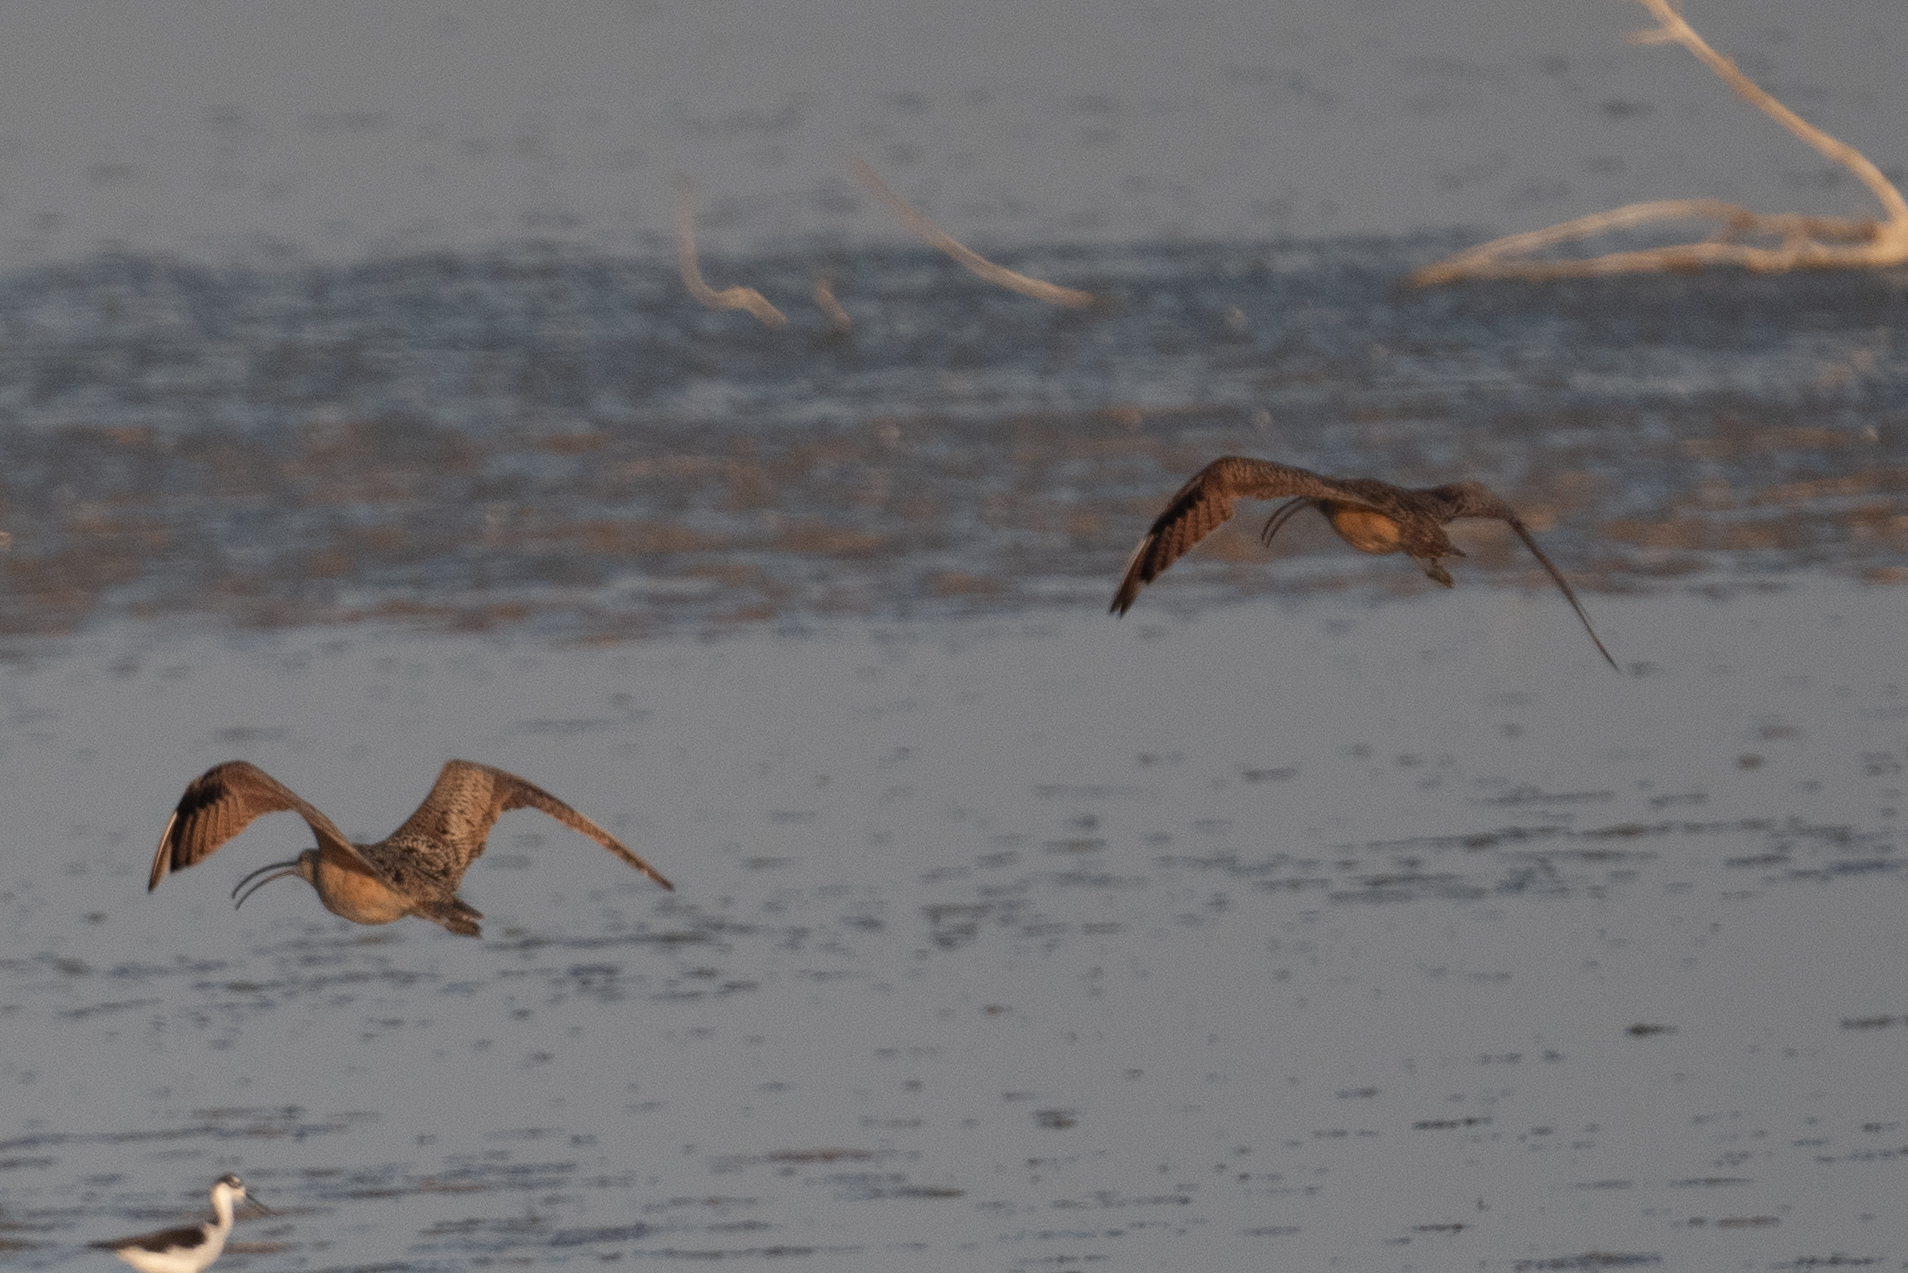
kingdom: Animalia
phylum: Chordata
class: Aves
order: Charadriiformes
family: Scolopacidae
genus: Numenius
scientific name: Numenius americanus
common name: Long-billed curlew
